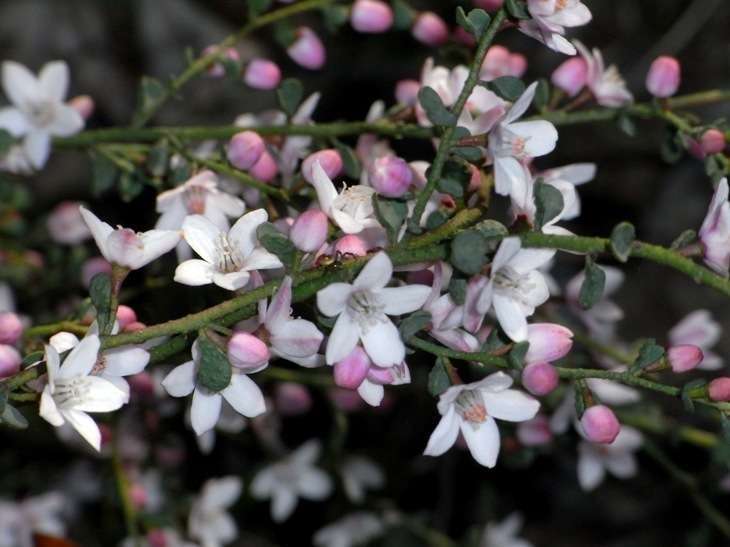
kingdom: Plantae
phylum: Tracheophyta
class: Magnoliopsida
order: Sapindales
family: Rutaceae
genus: Philotheca
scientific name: Philotheca verrucosa
